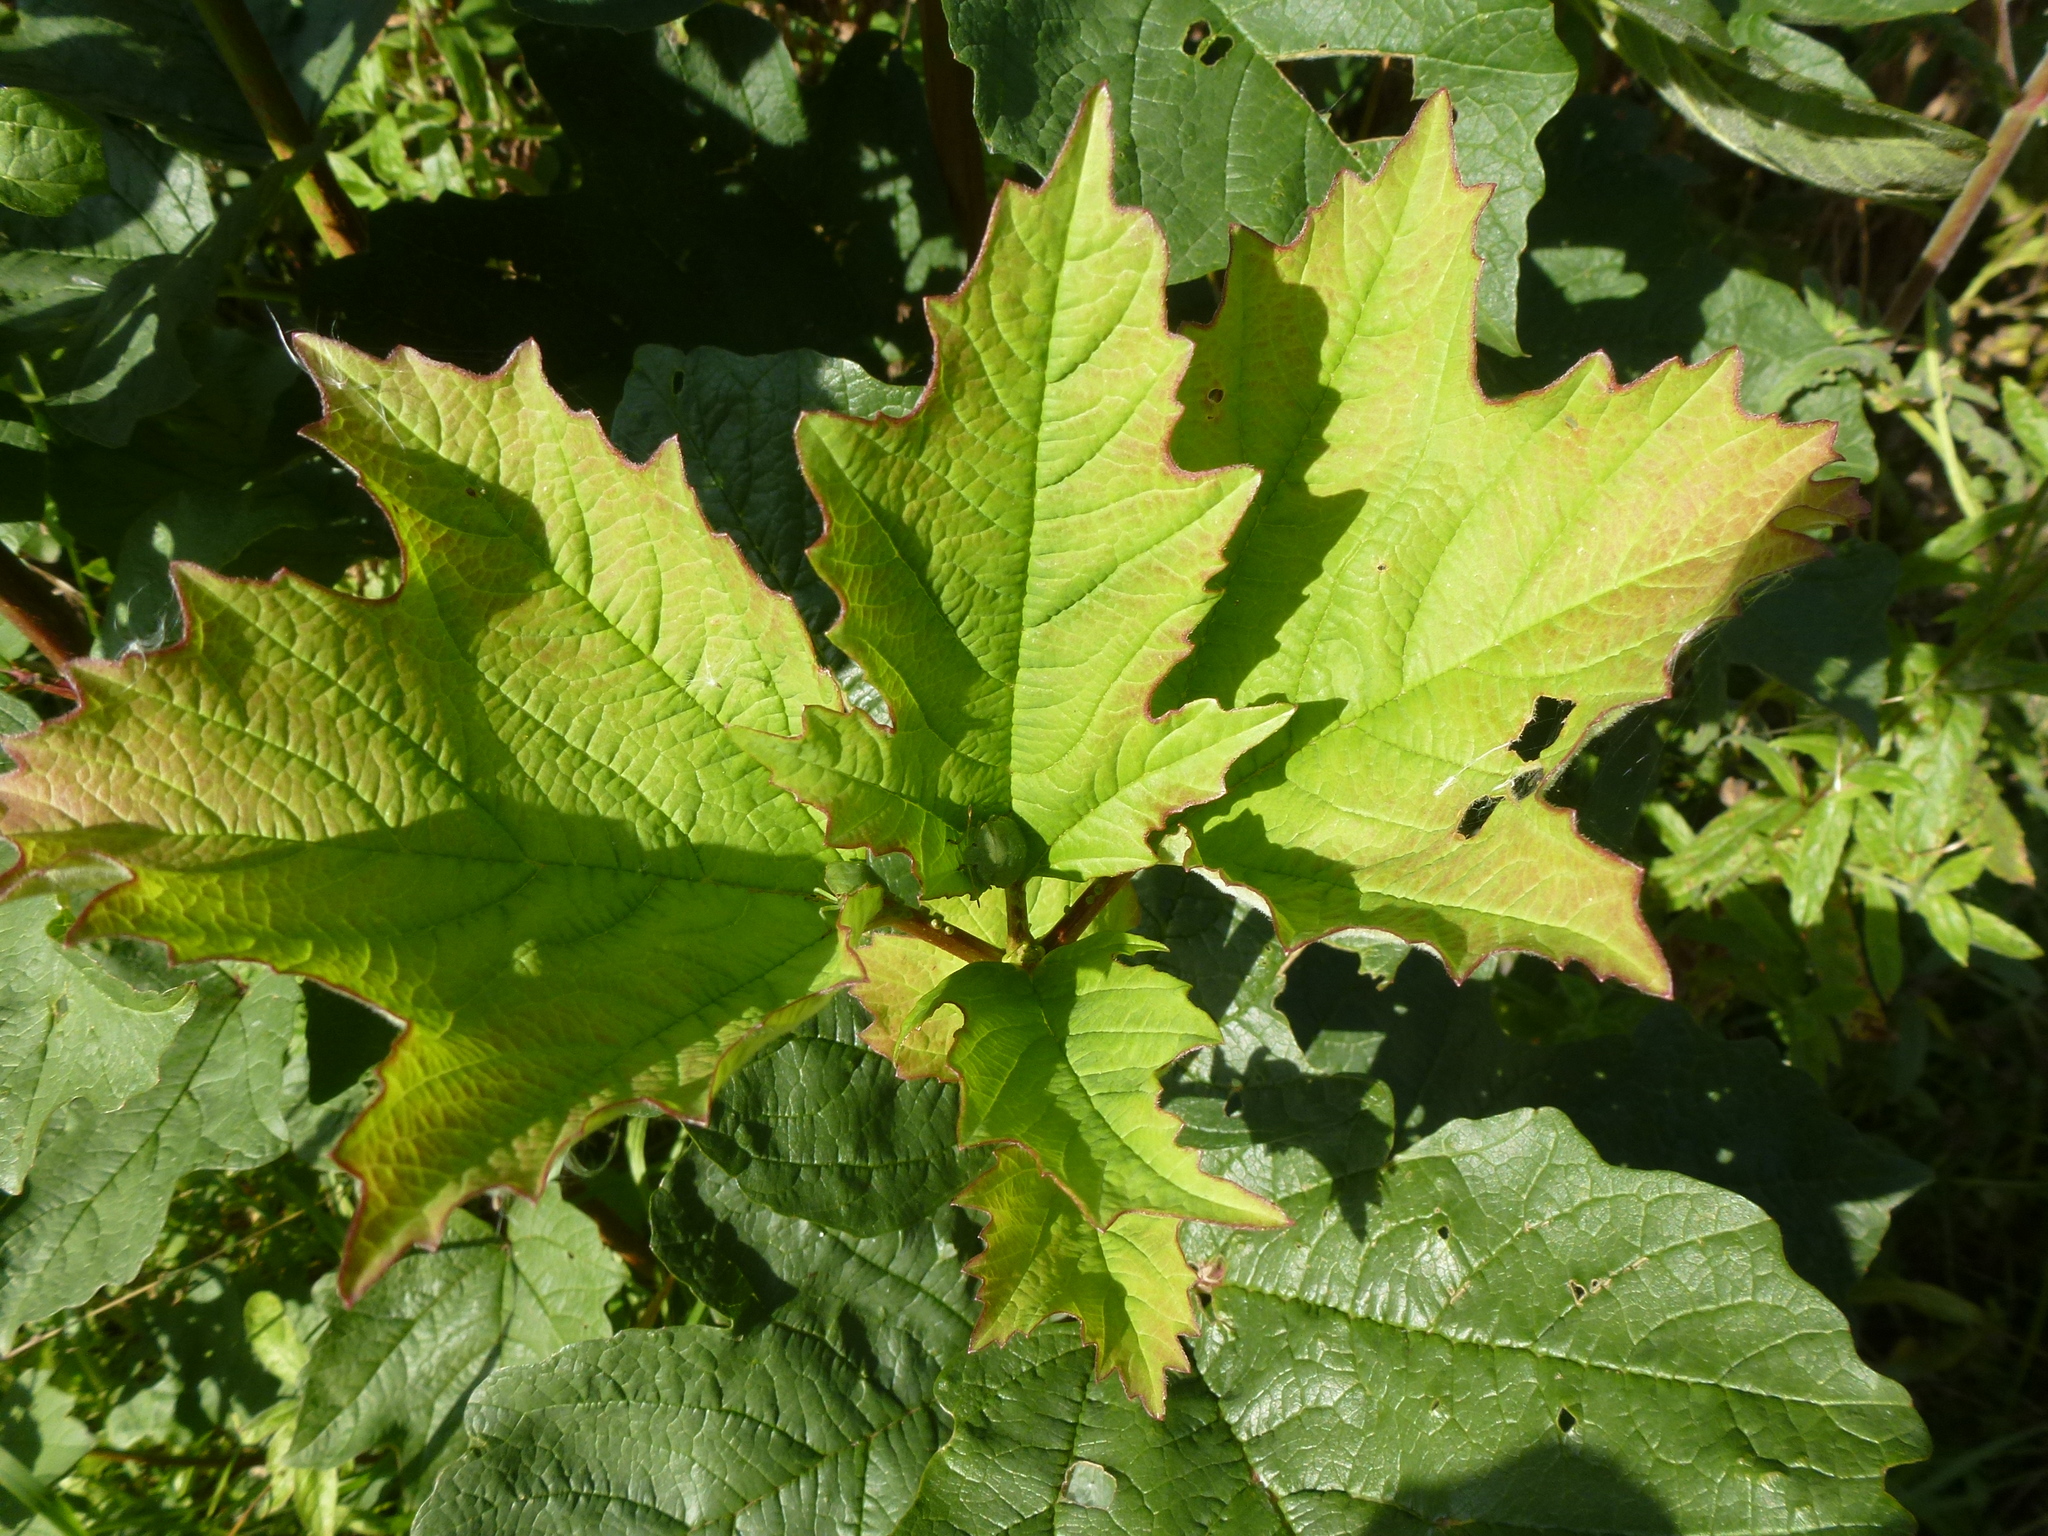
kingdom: Animalia
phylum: Arthropoda
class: Insecta
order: Hemiptera
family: Pentatomidae
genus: Palomena
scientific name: Palomena prasina
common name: Green shieldbug
